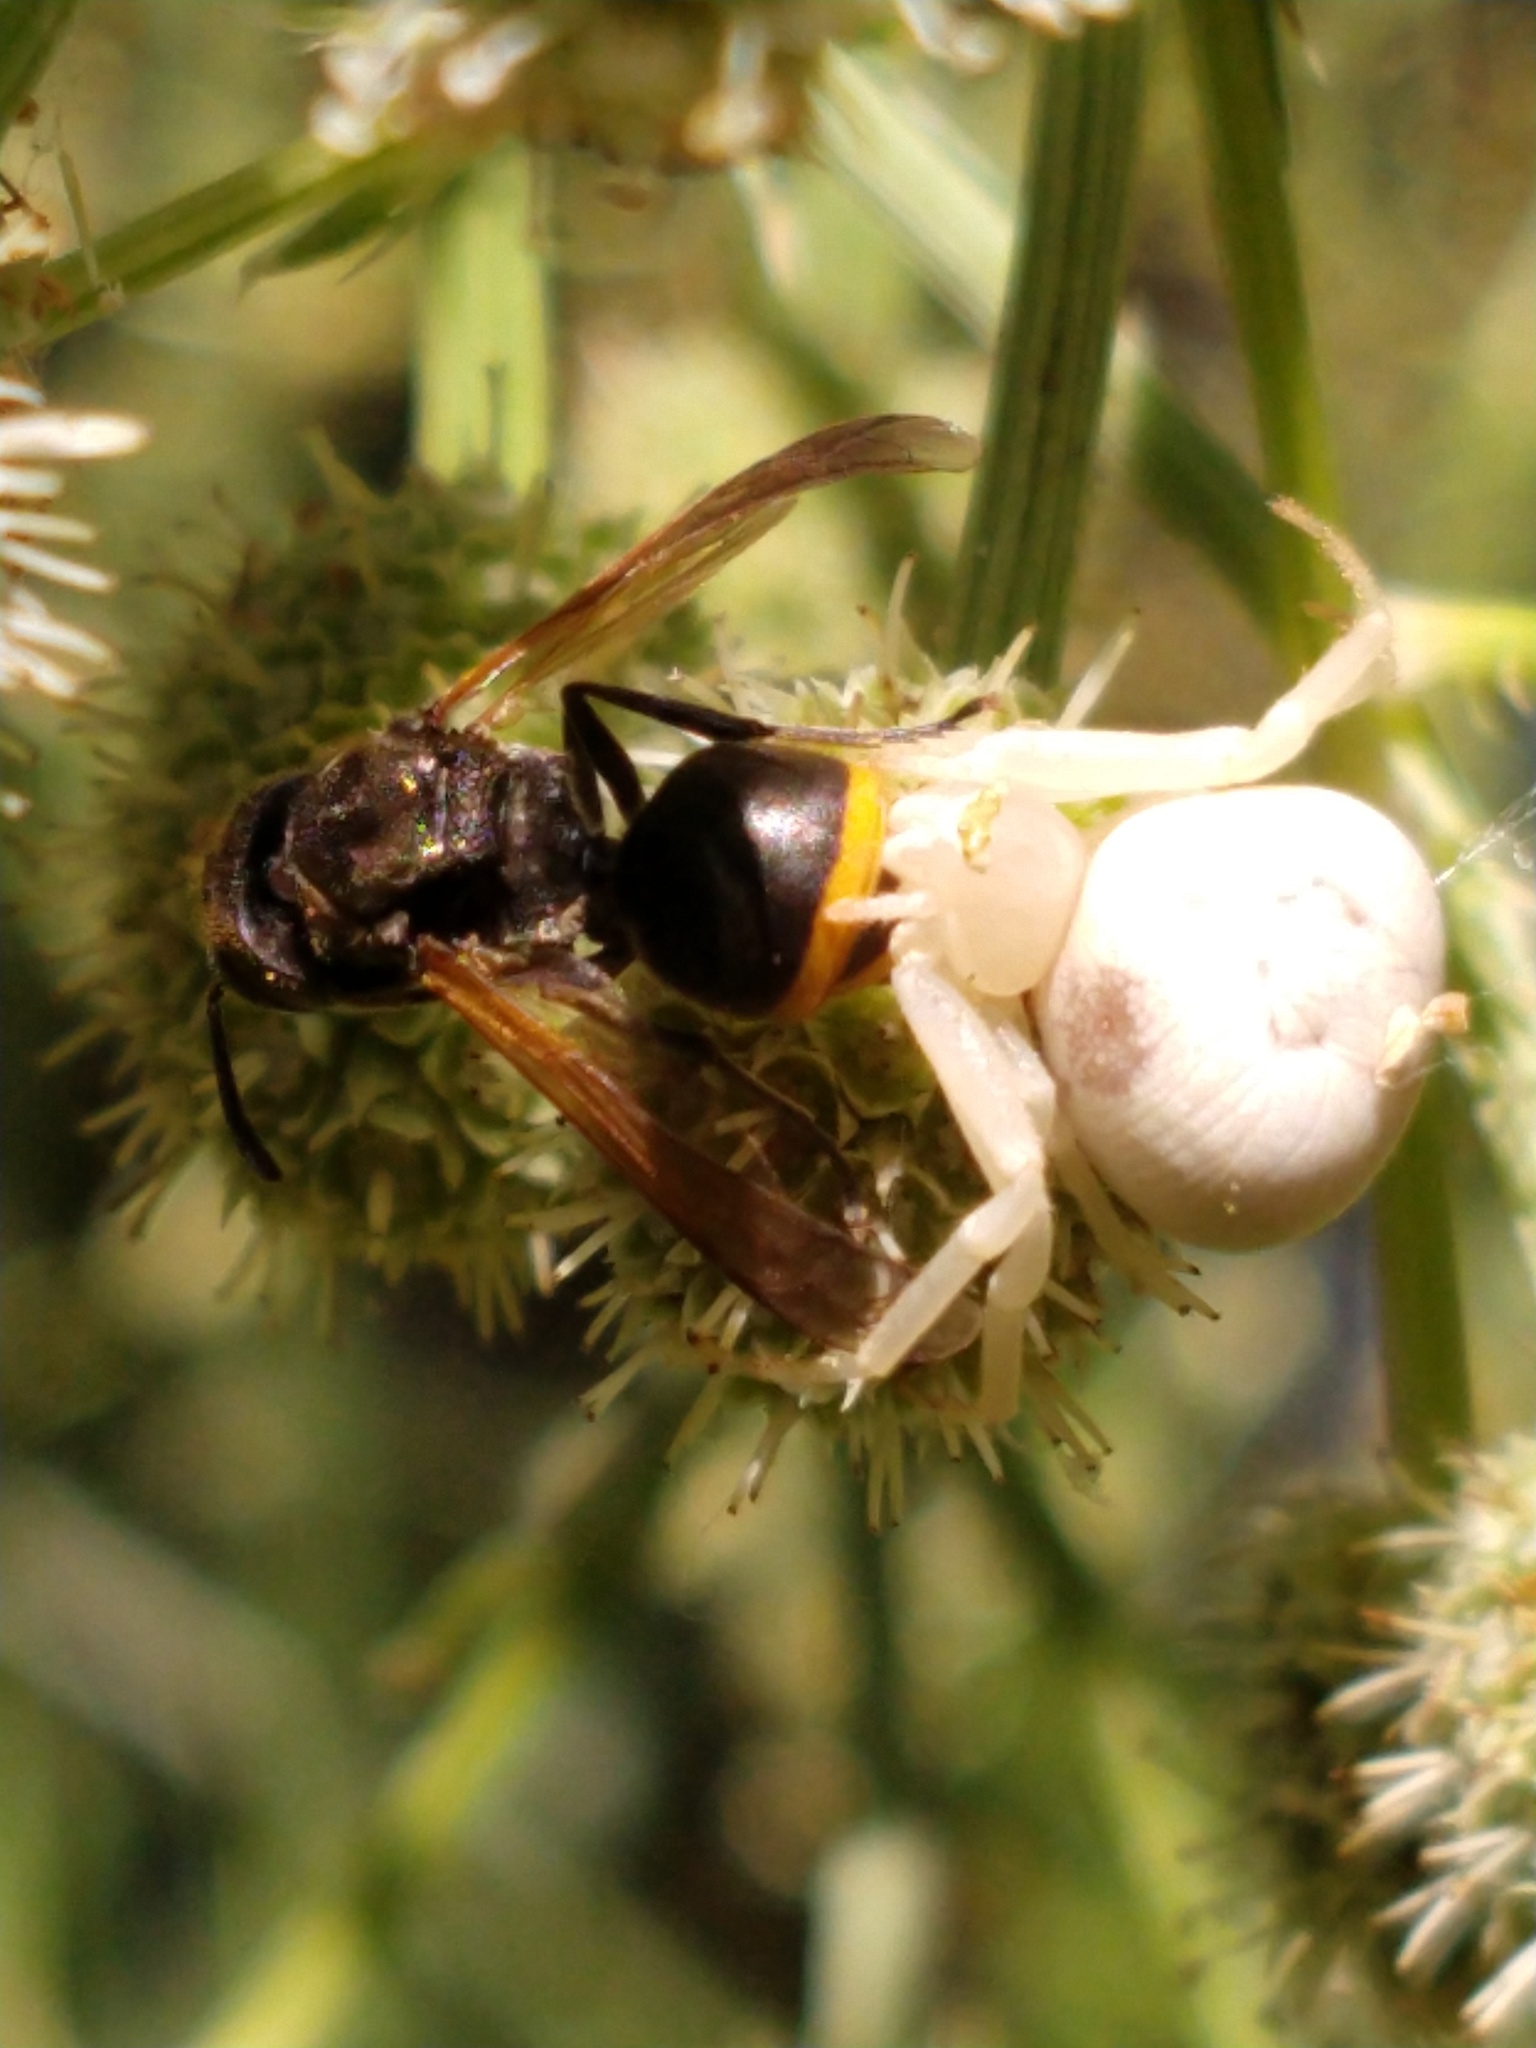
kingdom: Animalia
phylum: Arthropoda
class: Insecta
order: Hymenoptera
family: Vespidae
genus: Brachygastra
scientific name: Brachygastra lecheguana
